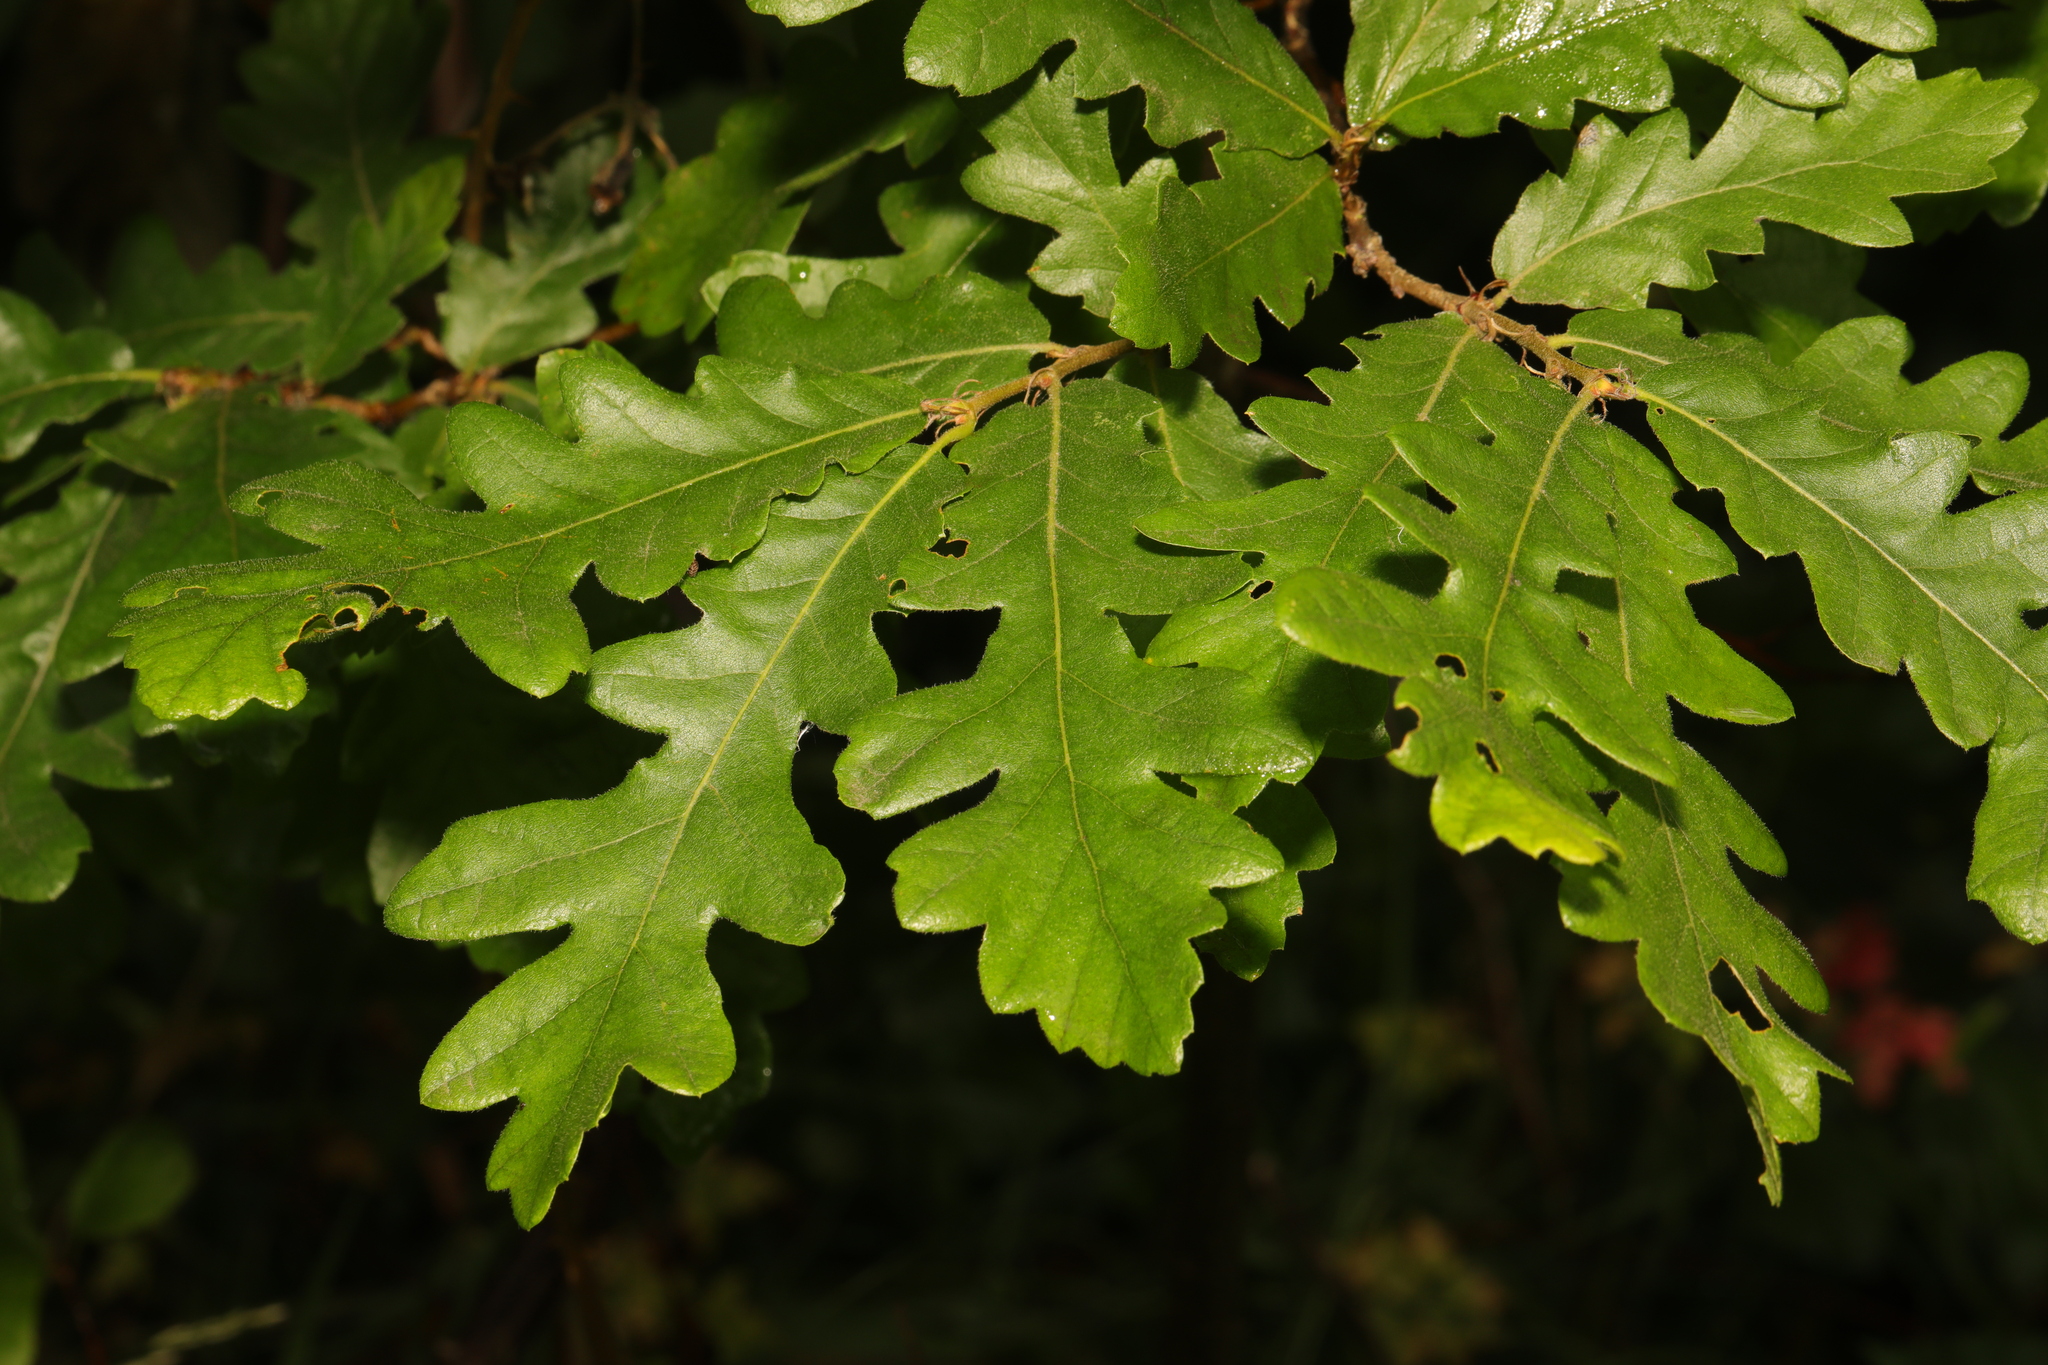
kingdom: Plantae
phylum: Tracheophyta
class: Magnoliopsida
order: Fagales
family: Fagaceae
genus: Quercus
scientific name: Quercus cerris
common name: Turkey oak
